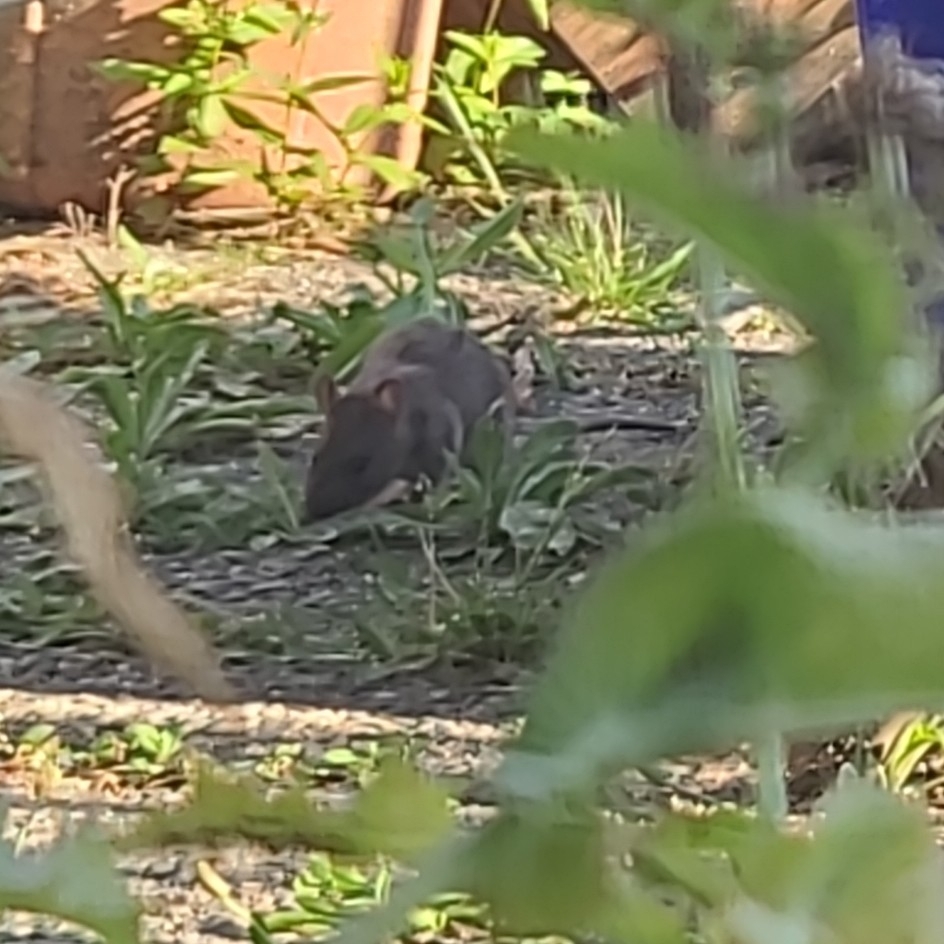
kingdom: Animalia
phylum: Chordata
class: Mammalia
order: Rodentia
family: Muridae
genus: Rattus
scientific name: Rattus norvegicus
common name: Brown rat
